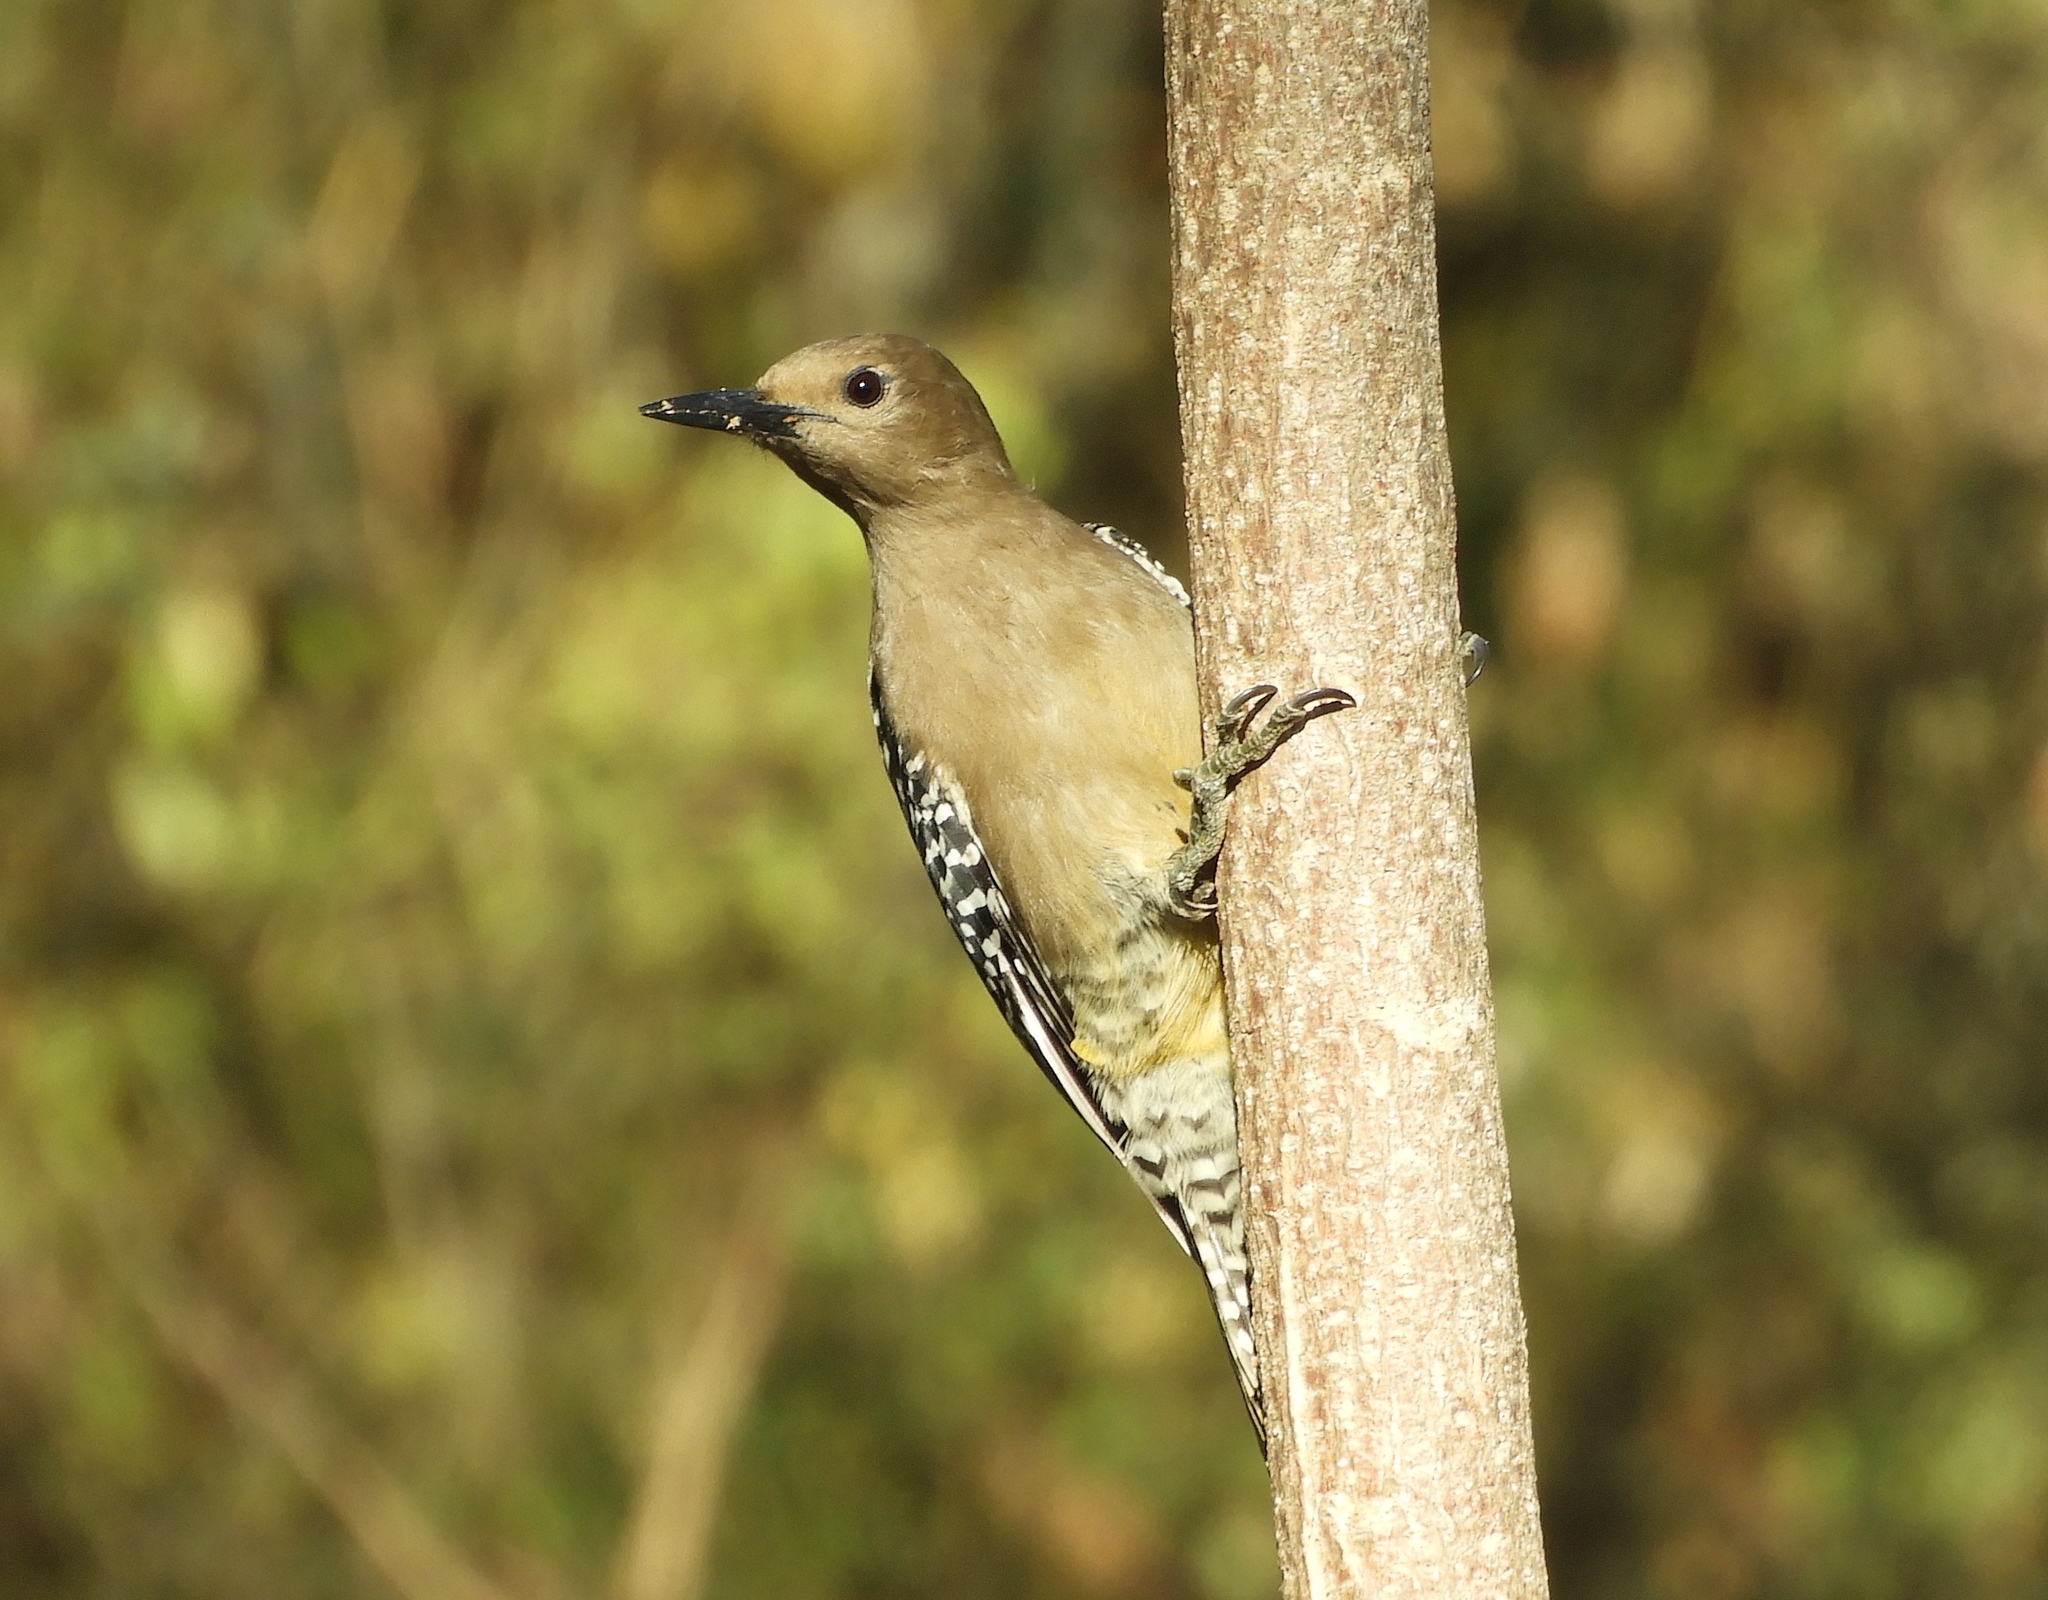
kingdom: Animalia
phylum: Chordata
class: Aves
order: Piciformes
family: Picidae
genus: Melanerpes
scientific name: Melanerpes uropygialis
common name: Gila woodpecker
